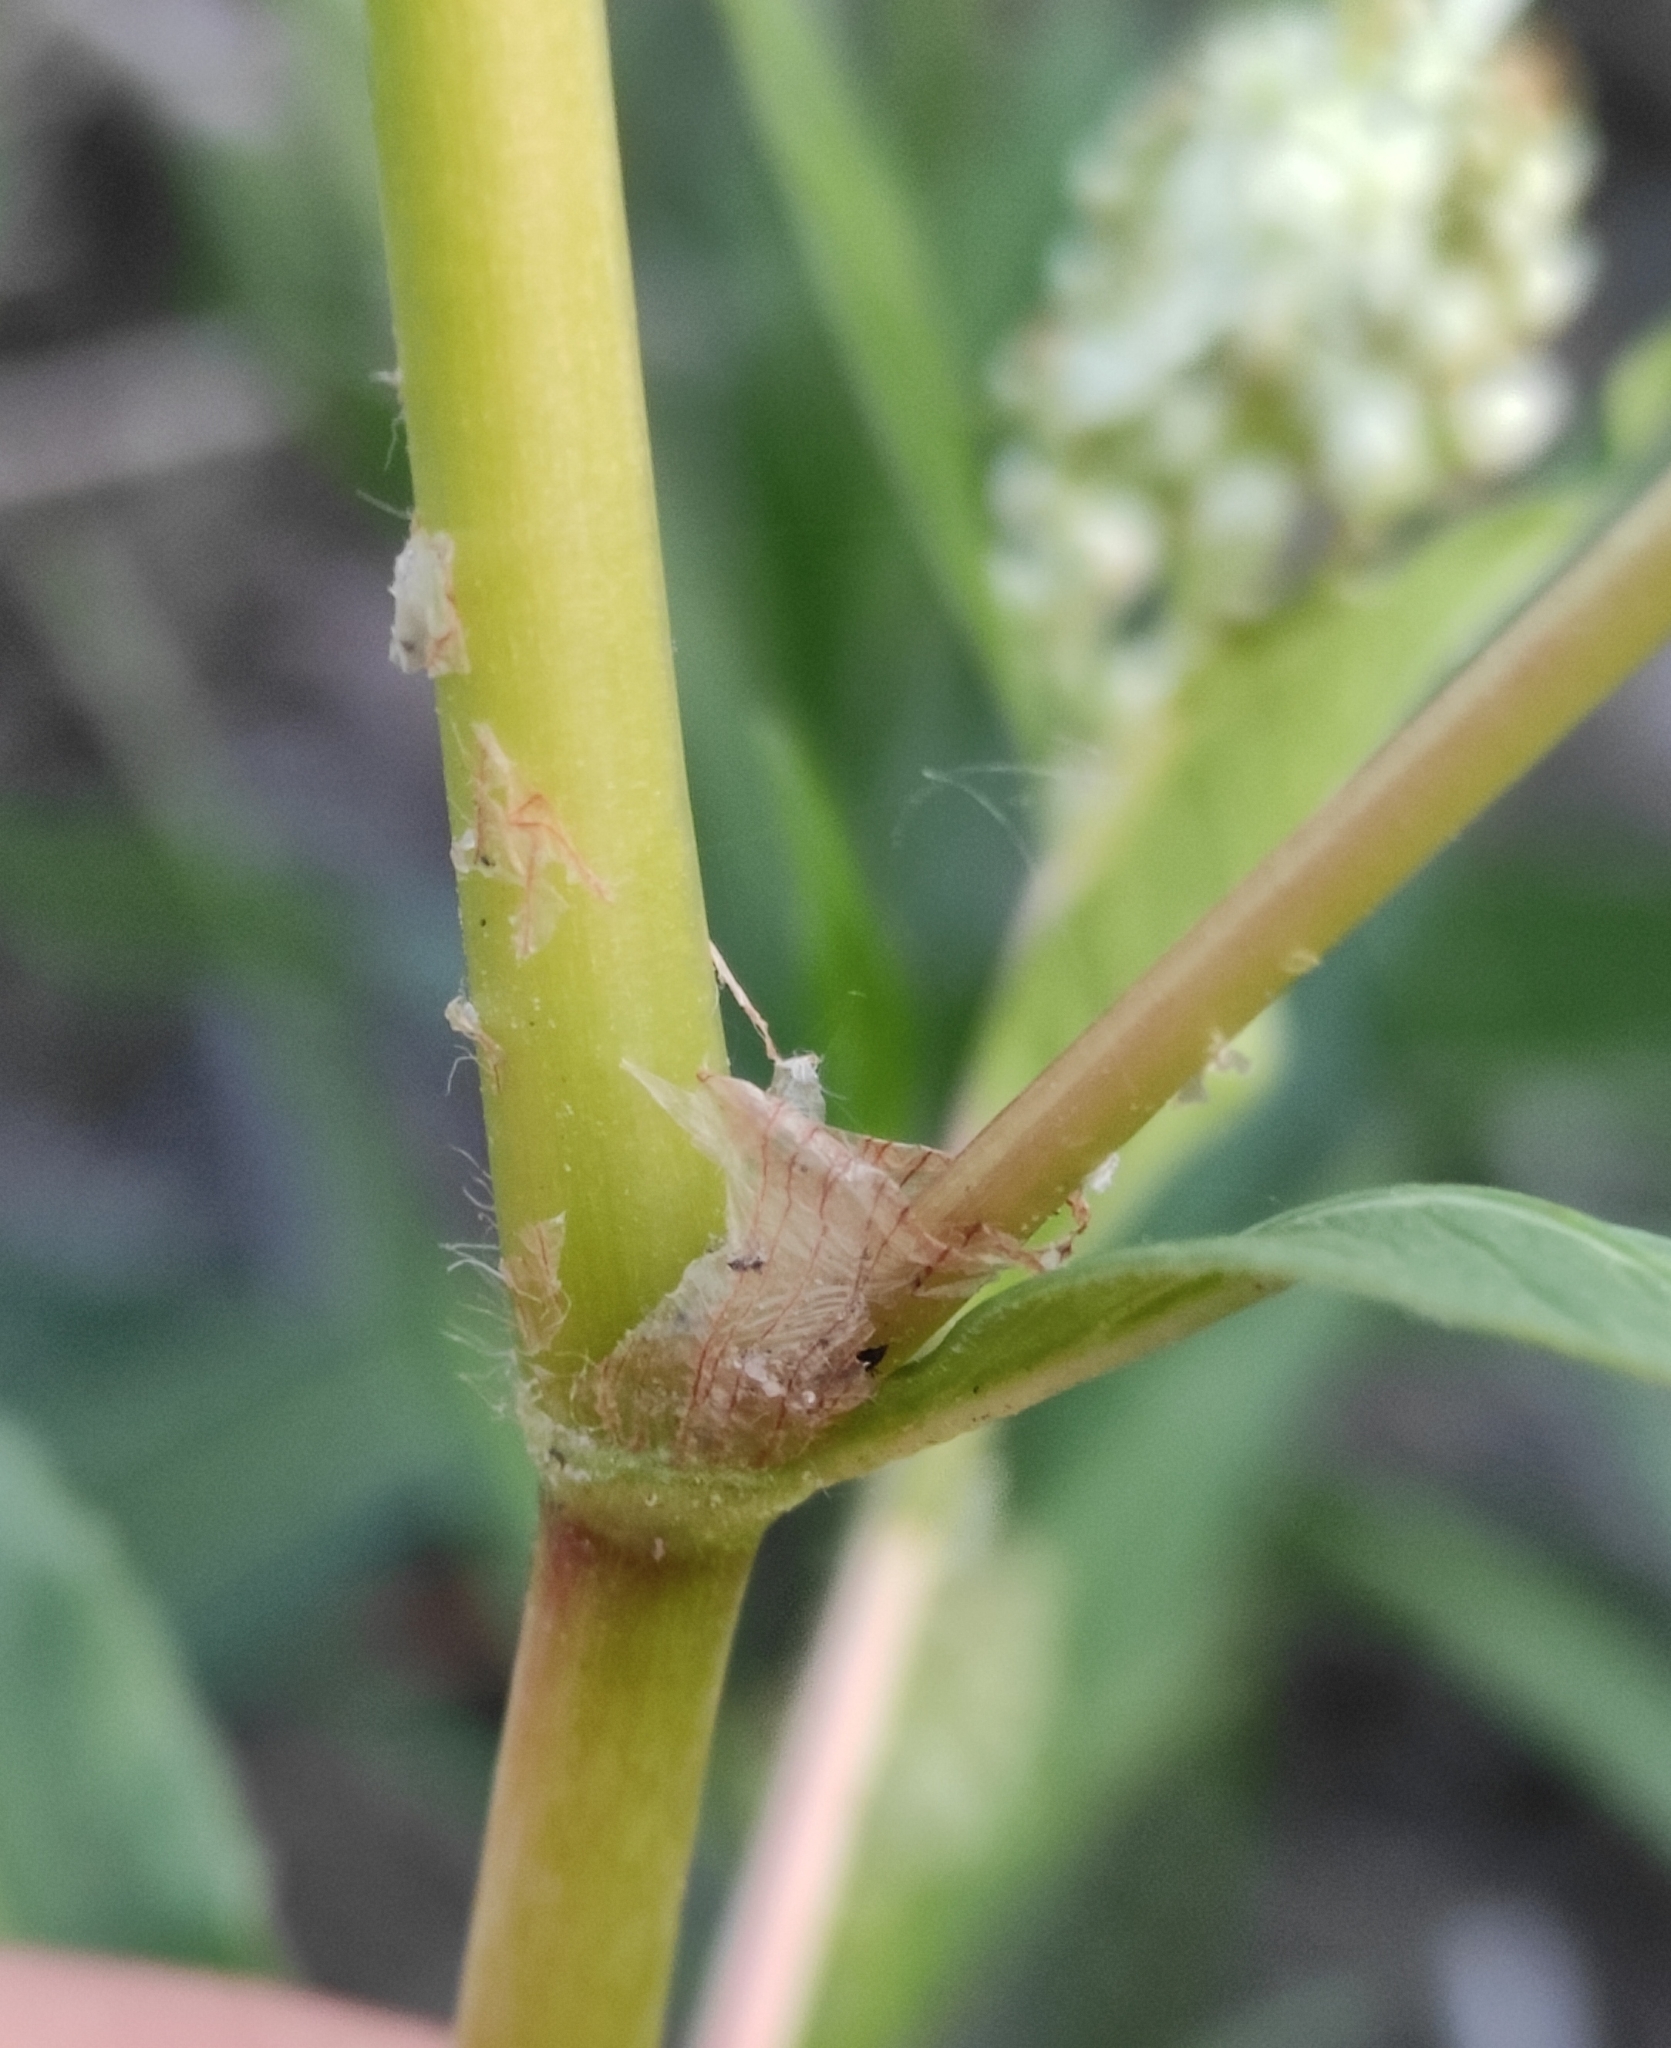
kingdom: Plantae
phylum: Tracheophyta
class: Magnoliopsida
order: Caryophyllales
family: Polygonaceae
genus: Koenigia
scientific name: Koenigia alpina
